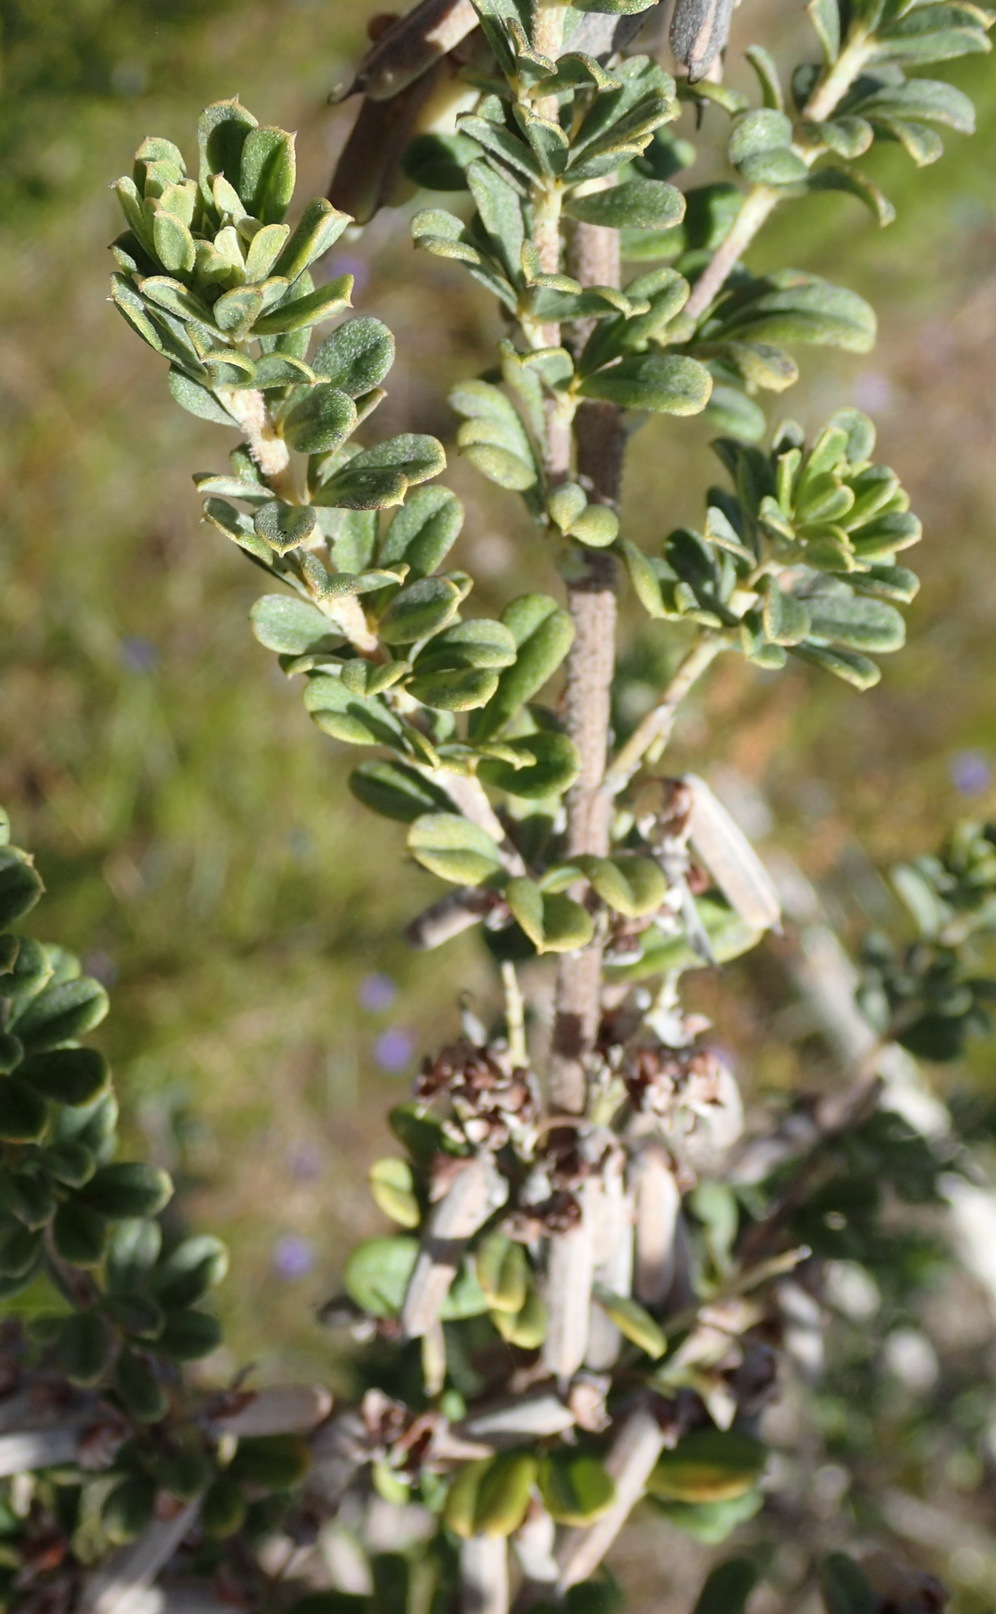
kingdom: Plantae
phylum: Tracheophyta
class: Magnoliopsida
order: Fabales
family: Fabaceae
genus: Indigofera
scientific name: Indigofera flabellata
